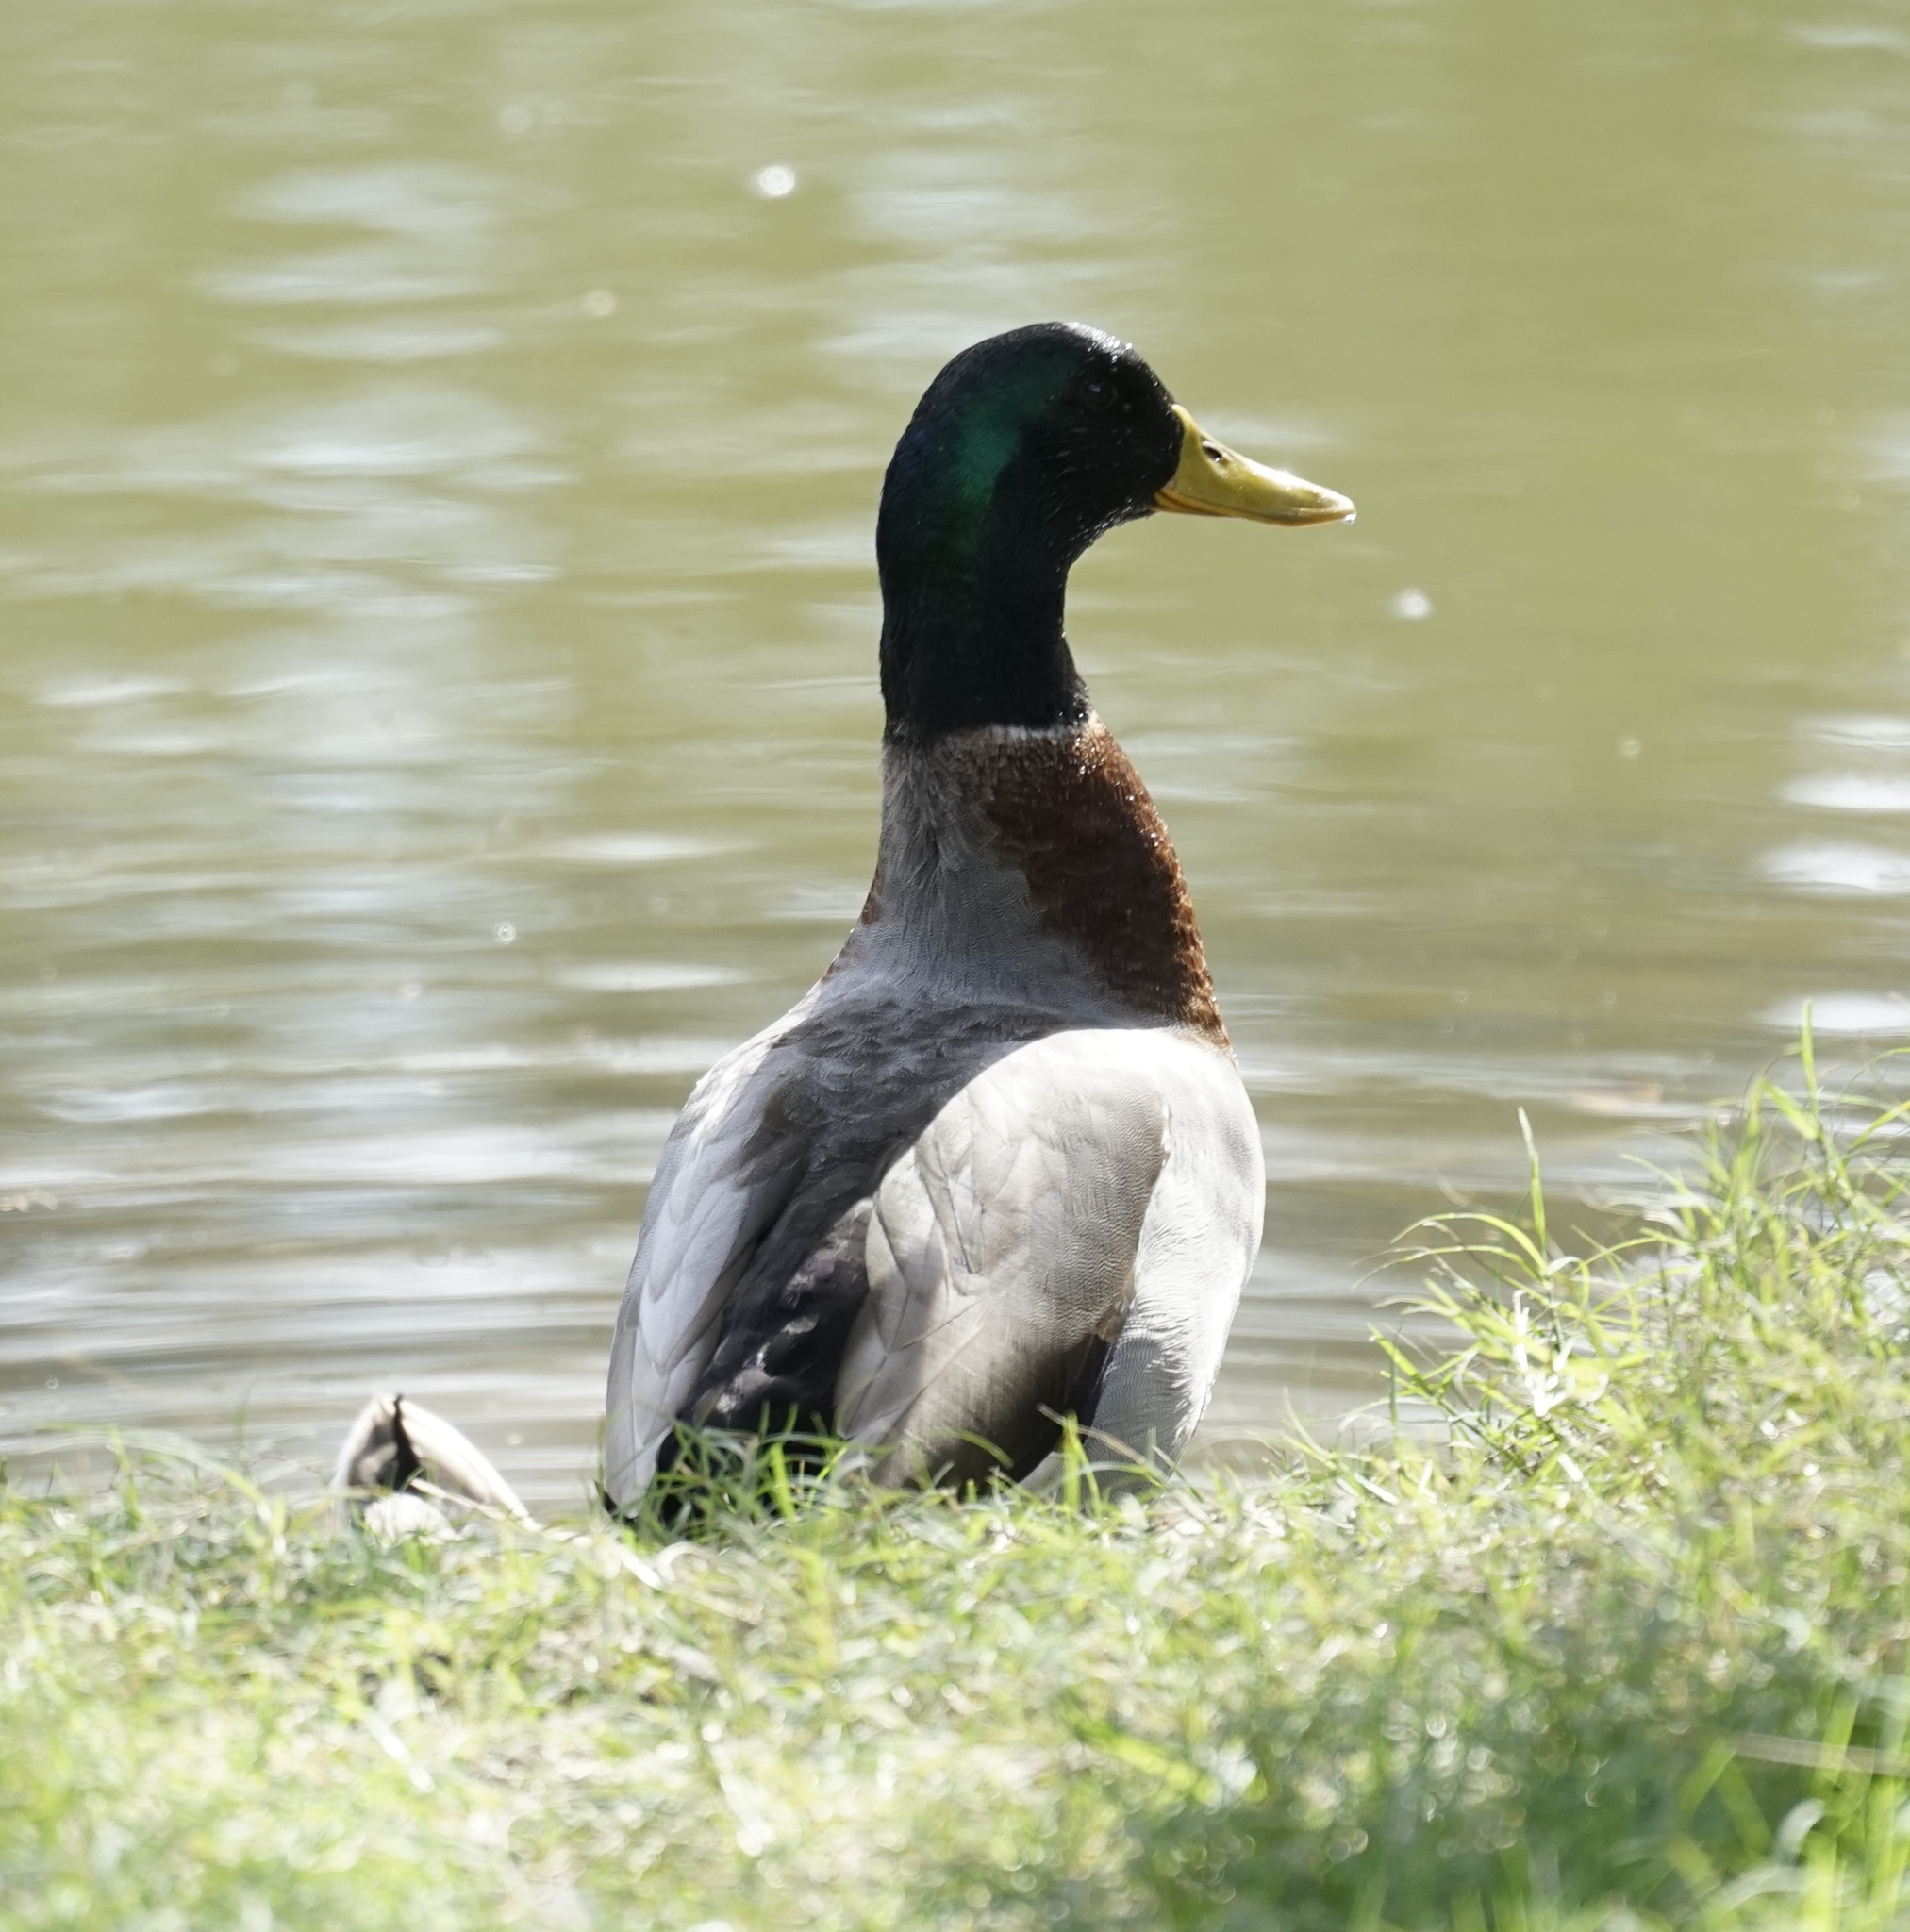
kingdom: Animalia
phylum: Chordata
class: Aves
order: Anseriformes
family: Anatidae
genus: Anas
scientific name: Anas platyrhynchos
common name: Mallard
